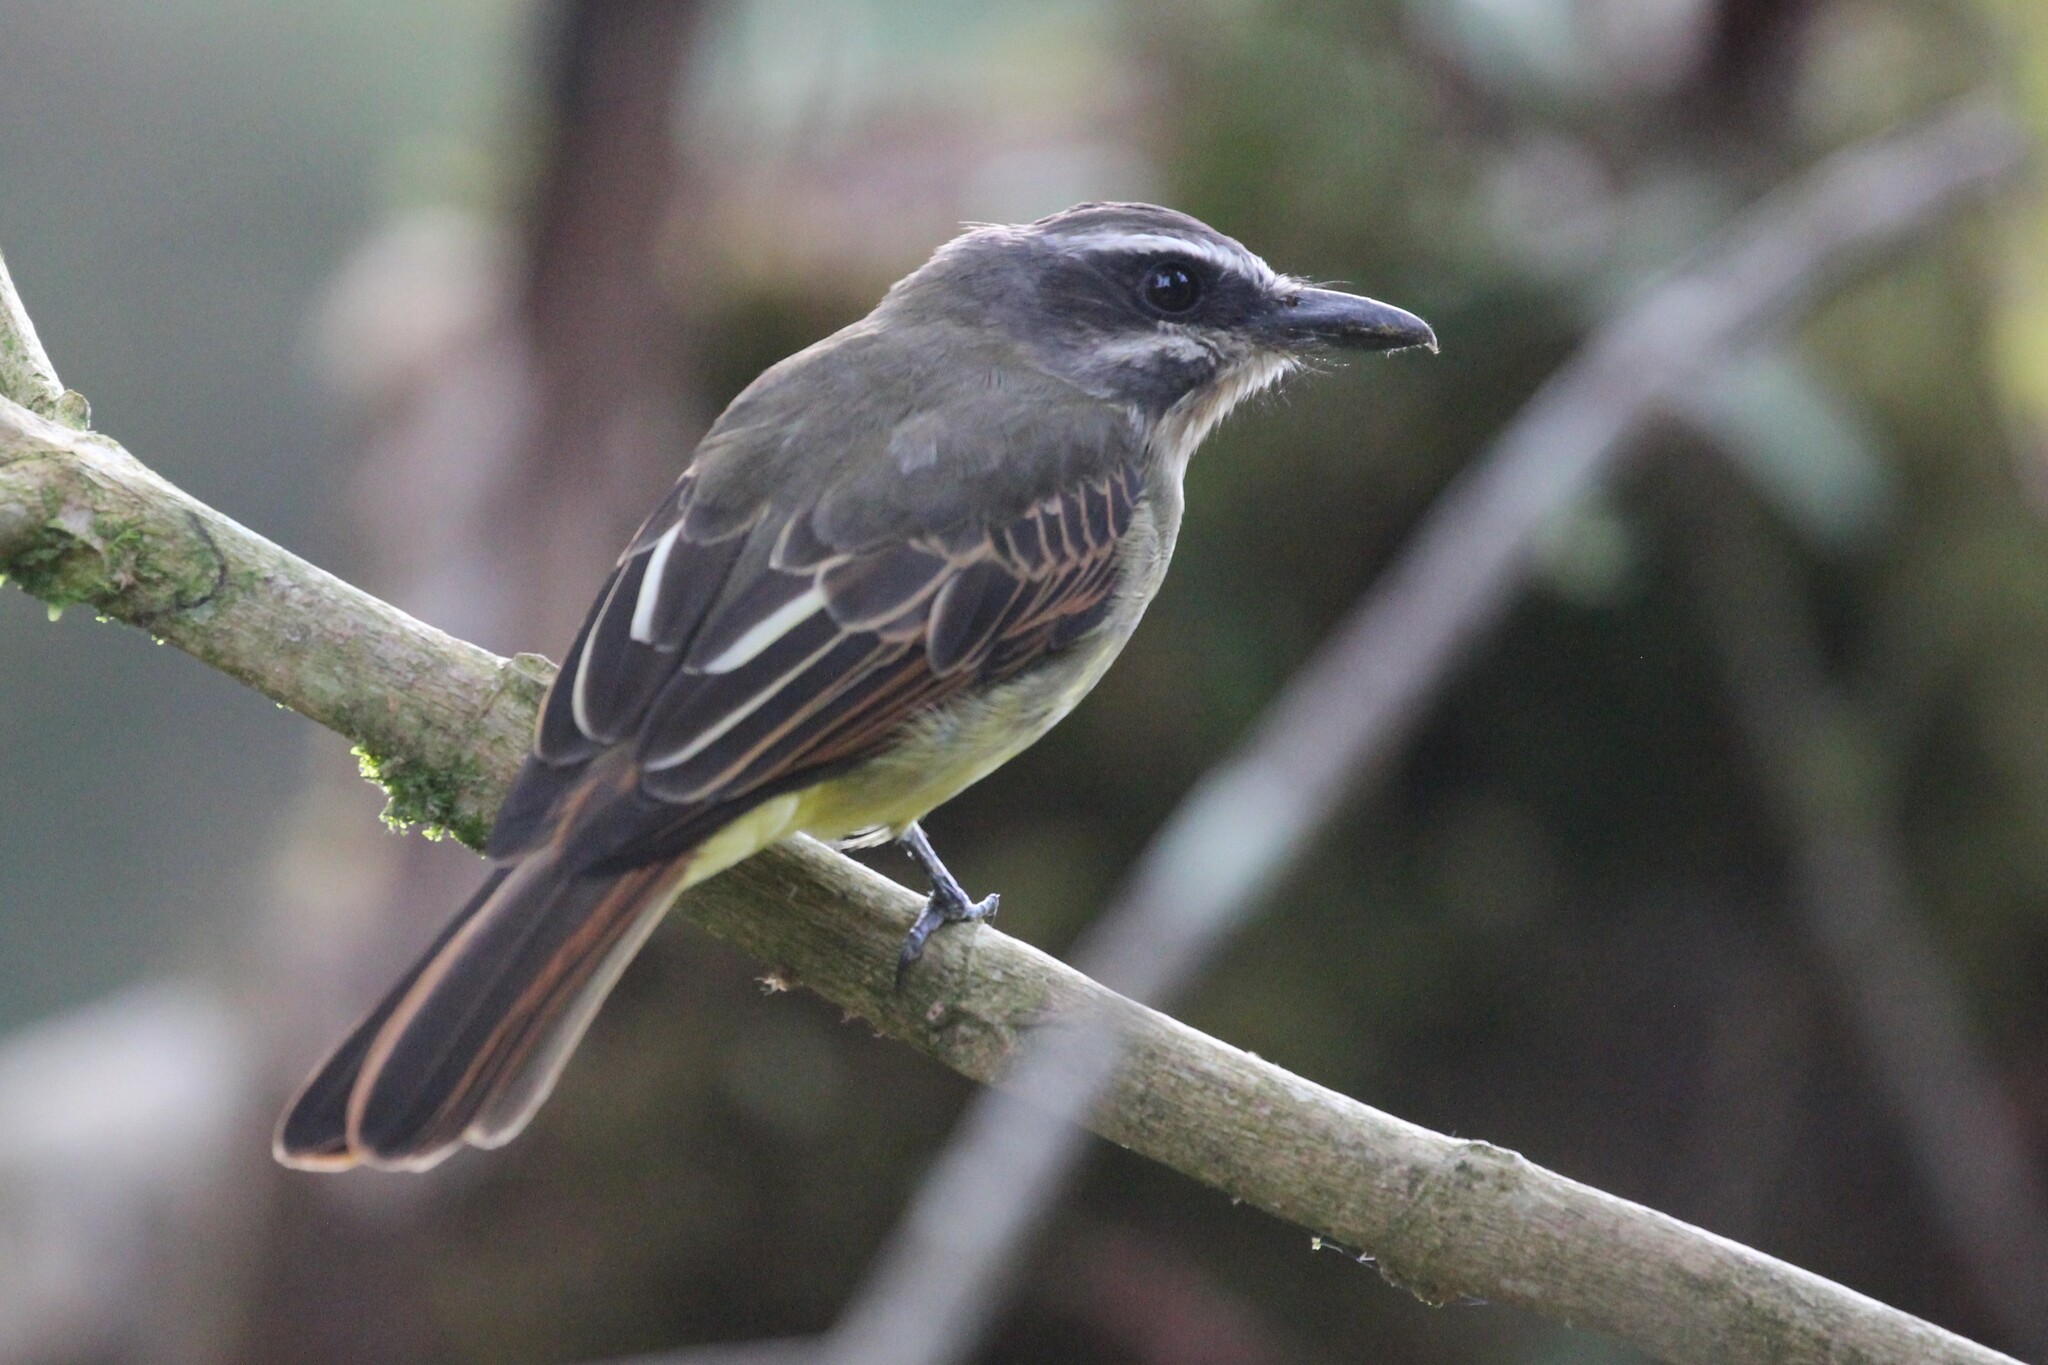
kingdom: Animalia
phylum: Chordata
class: Aves
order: Passeriformes
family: Tyrannidae
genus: Myiodynastes
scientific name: Myiodynastes hemichrysus
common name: Golden-bellied flycatcher
